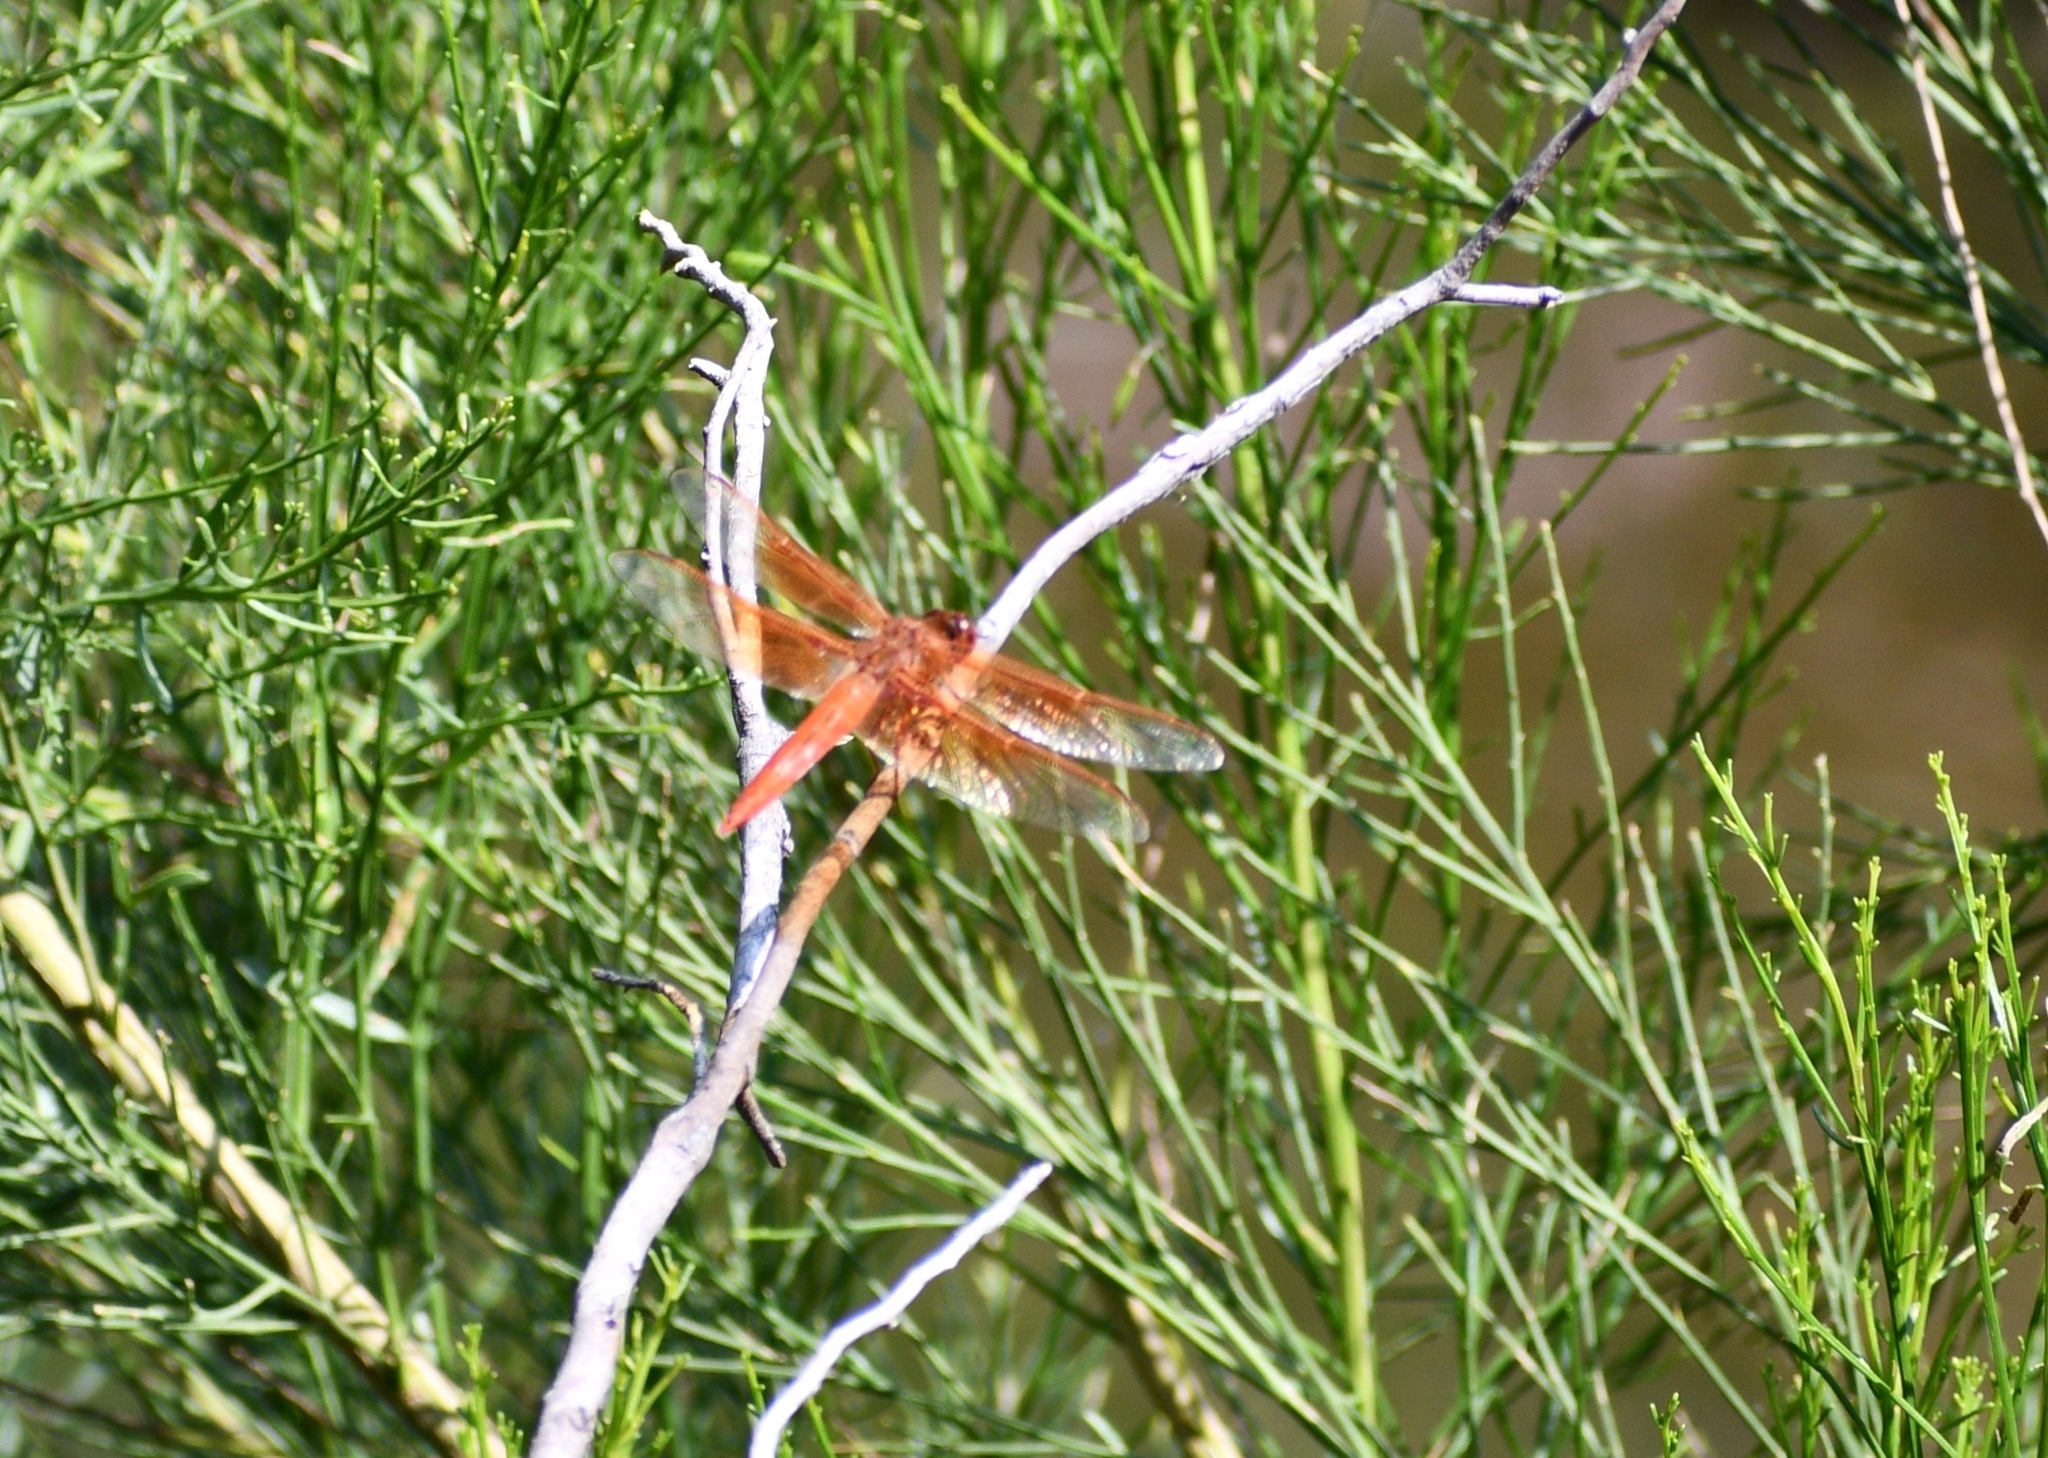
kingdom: Animalia
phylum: Arthropoda
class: Insecta
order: Odonata
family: Libellulidae
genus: Libellula
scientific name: Libellula saturata
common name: Flame skimmer
